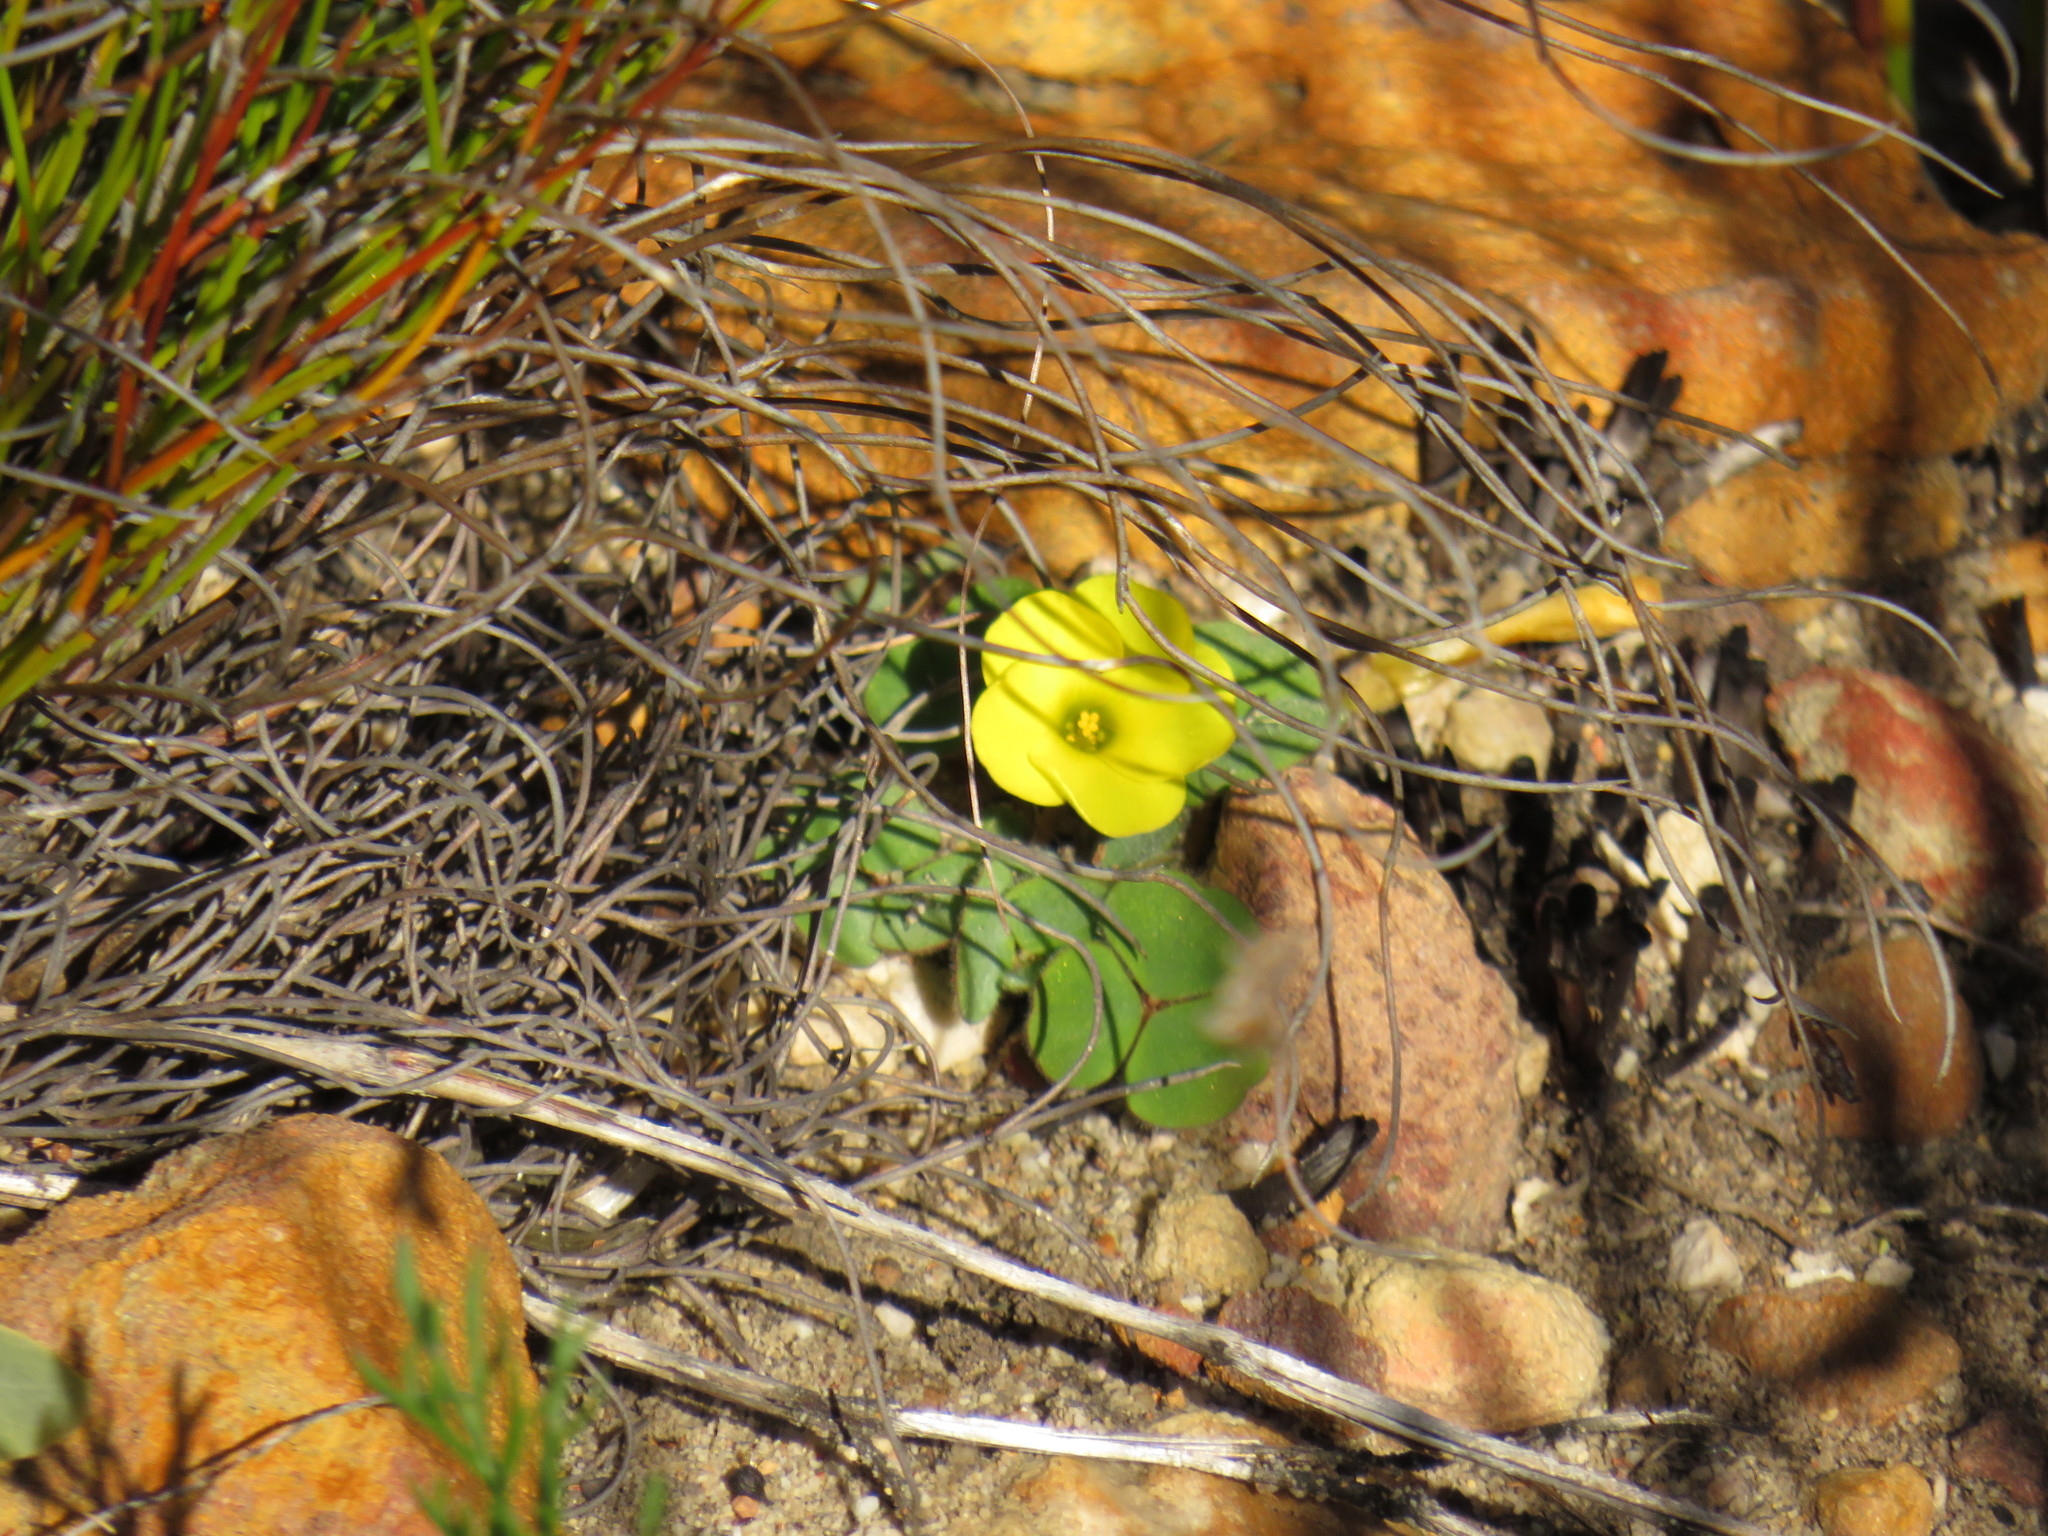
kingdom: Plantae
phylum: Tracheophyta
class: Magnoliopsida
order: Oxalidales
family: Oxalidaceae
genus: Oxalis
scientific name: Oxalis luteola
